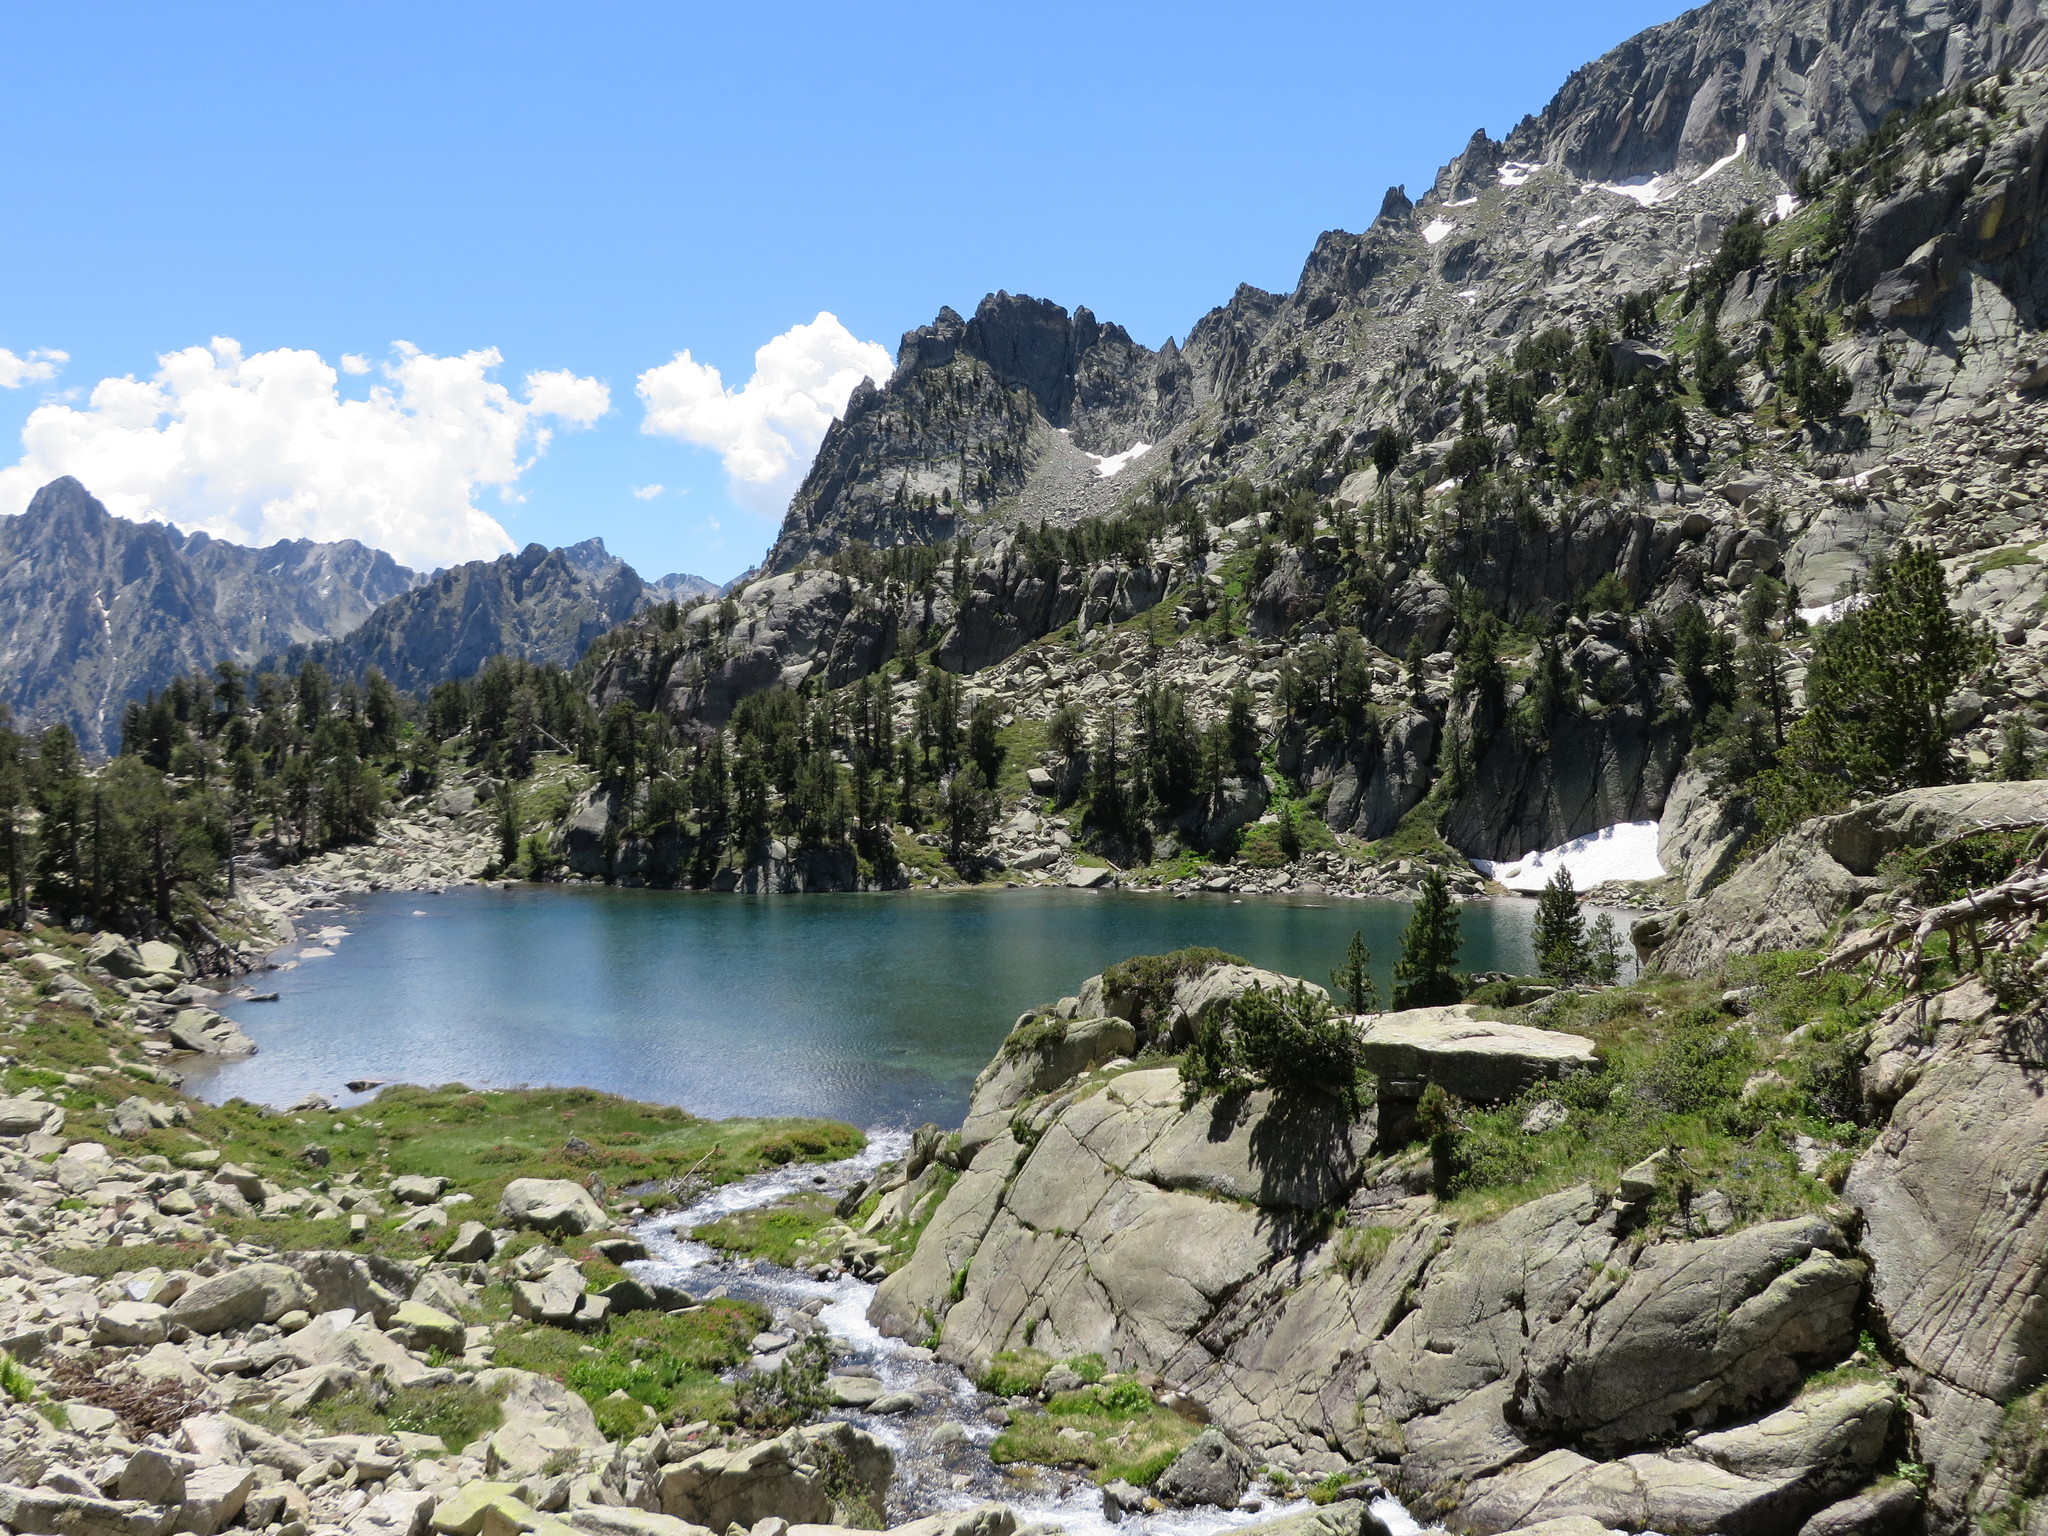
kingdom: Plantae
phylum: Tracheophyta
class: Pinopsida
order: Pinales
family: Pinaceae
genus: Pinus
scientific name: Pinus uncinata
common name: Mountain pine
